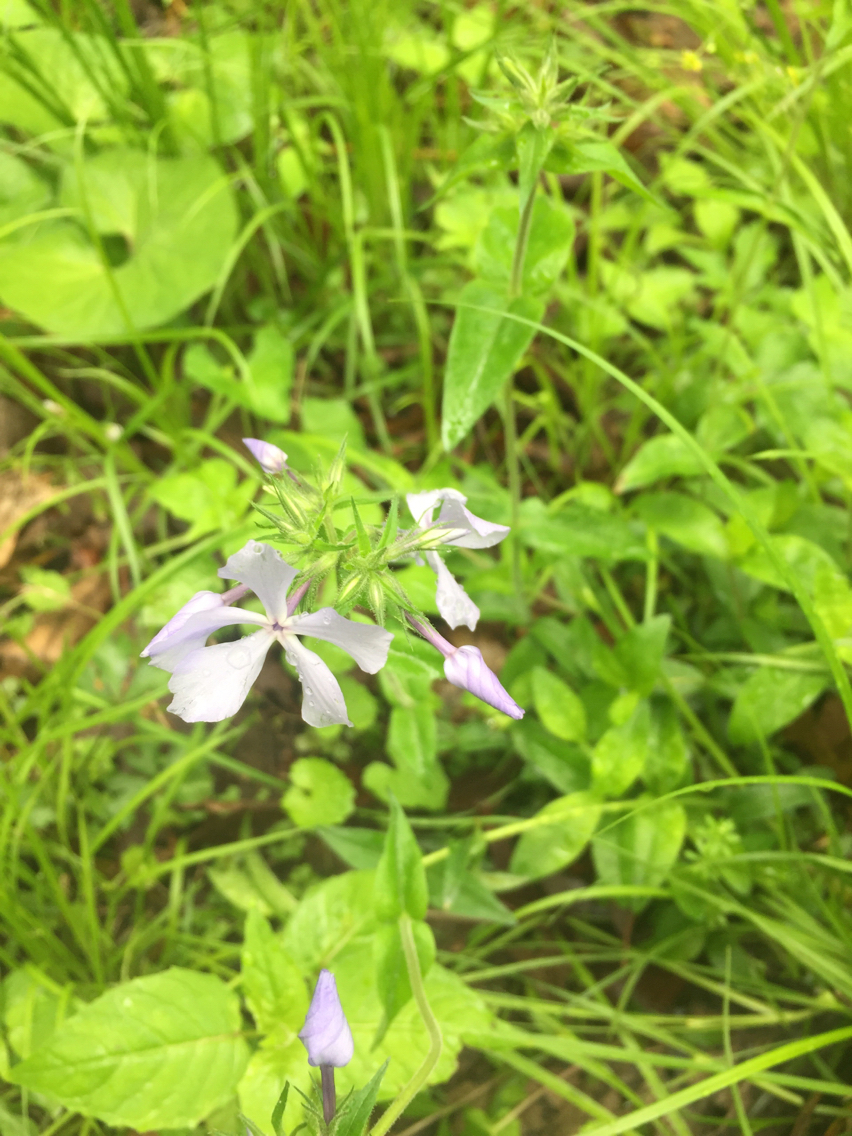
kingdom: Plantae
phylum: Tracheophyta
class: Magnoliopsida
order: Ericales
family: Polemoniaceae
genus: Phlox
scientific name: Phlox divaricata
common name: Blue phlox
